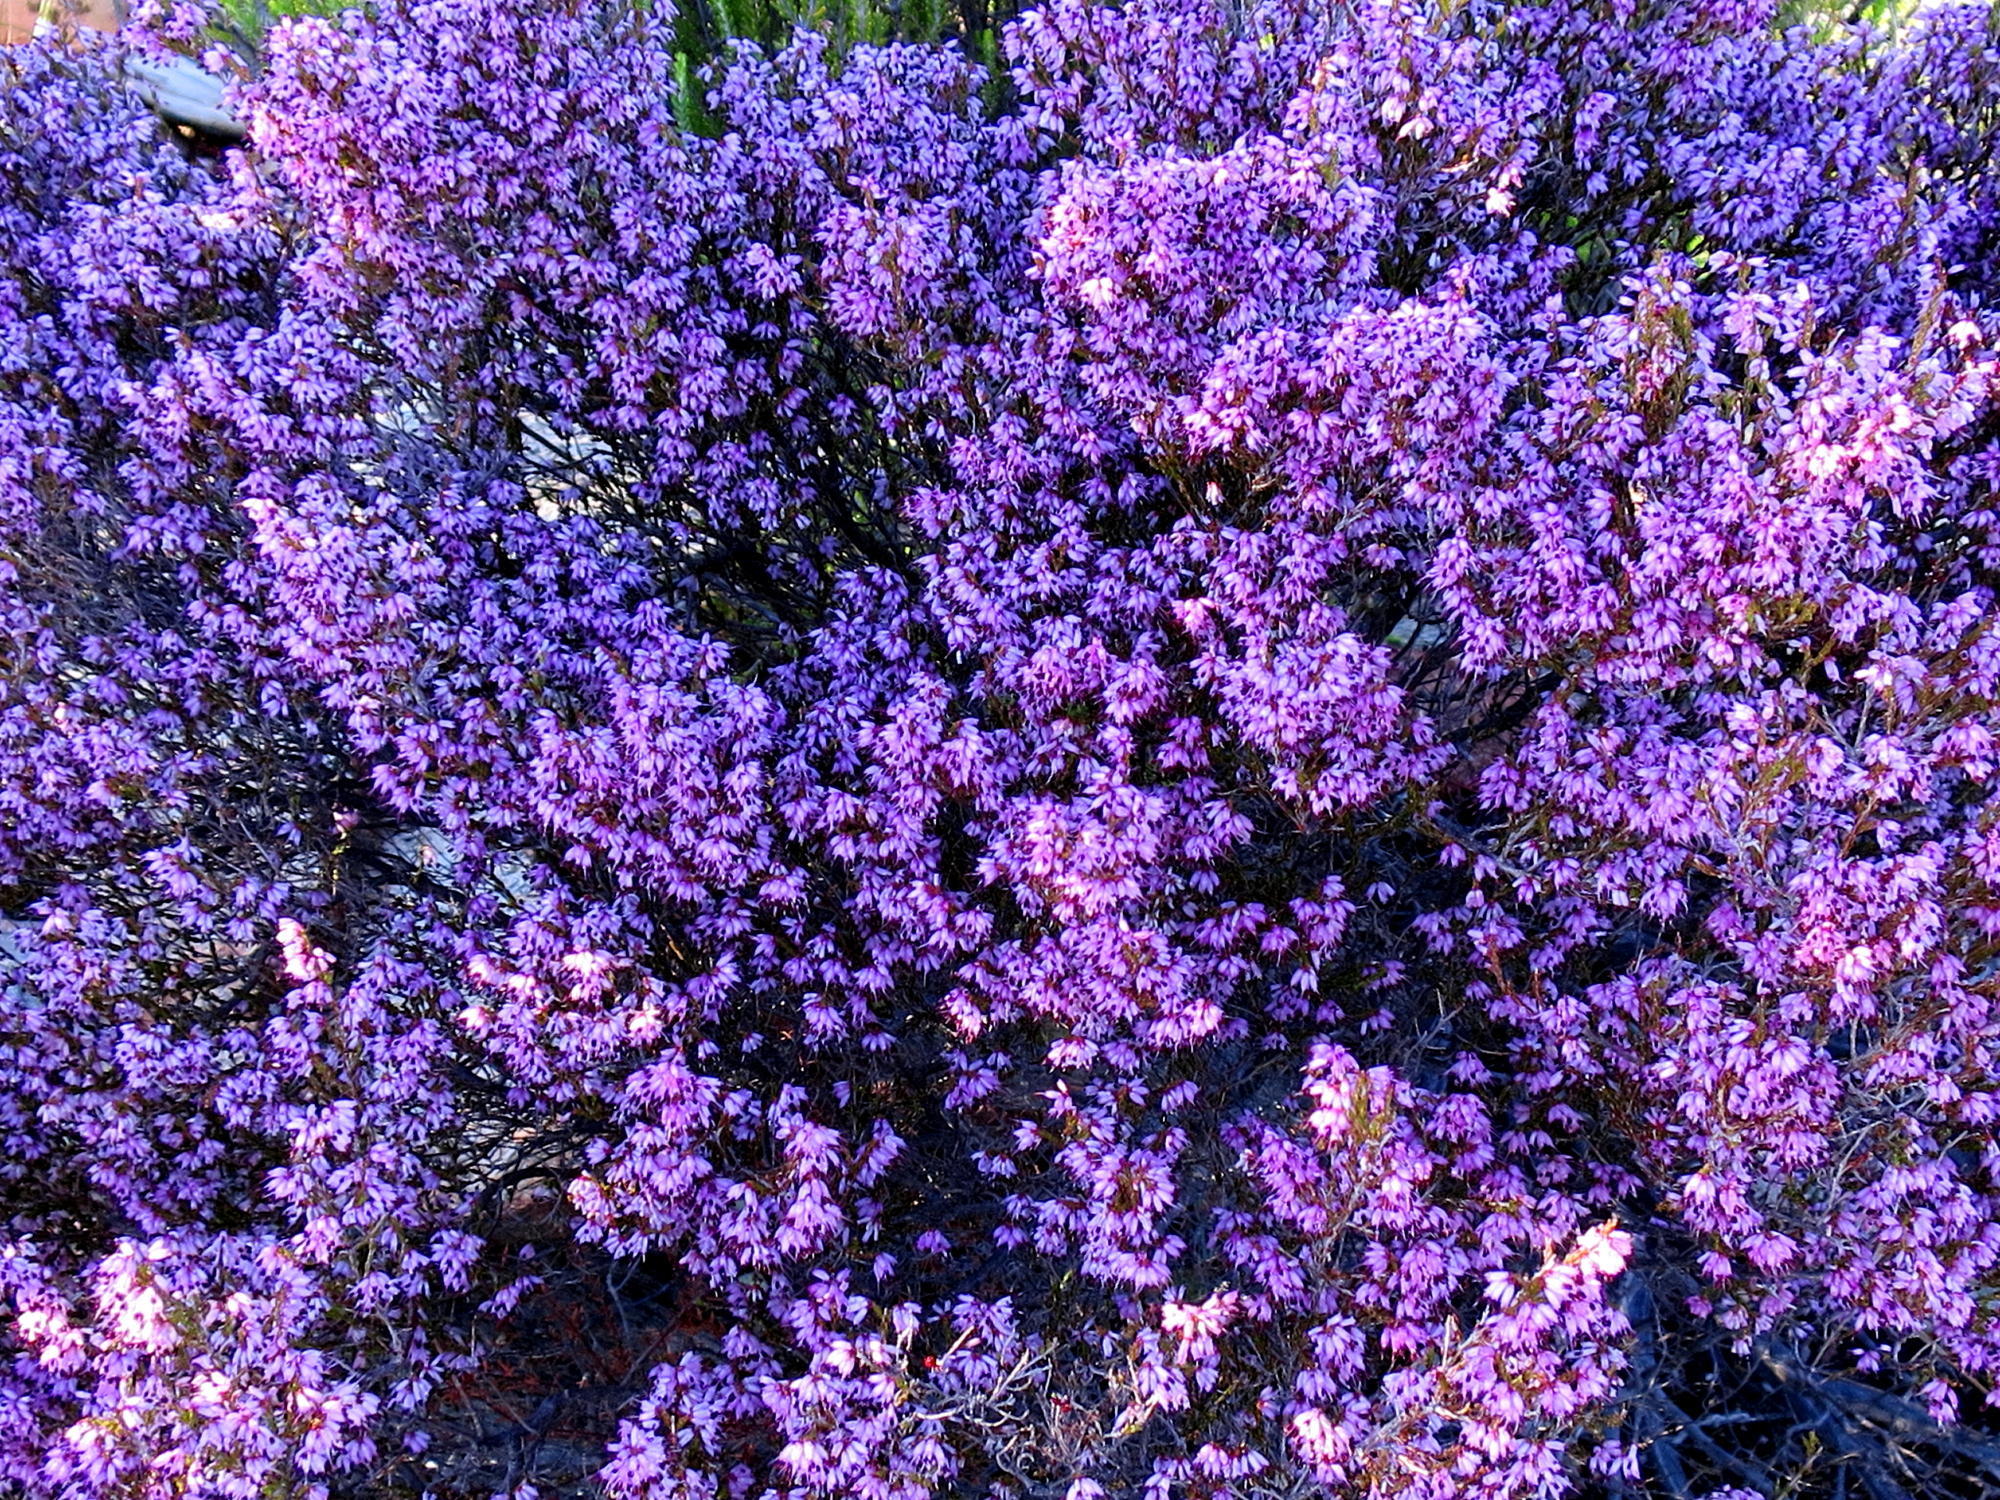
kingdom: Plantae
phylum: Tracheophyta
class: Magnoliopsida
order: Ericales
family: Ericaceae
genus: Erica
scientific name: Erica rosacea
